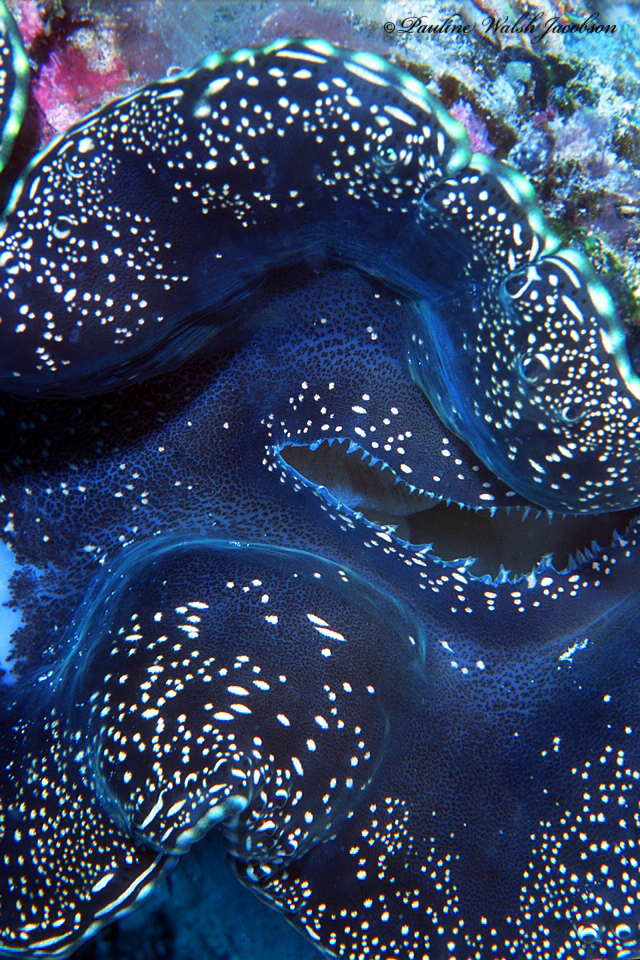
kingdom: Animalia
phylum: Mollusca
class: Bivalvia
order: Cardiida
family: Cardiidae
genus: Tridacna
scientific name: Tridacna maxima
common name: Small giant clam
